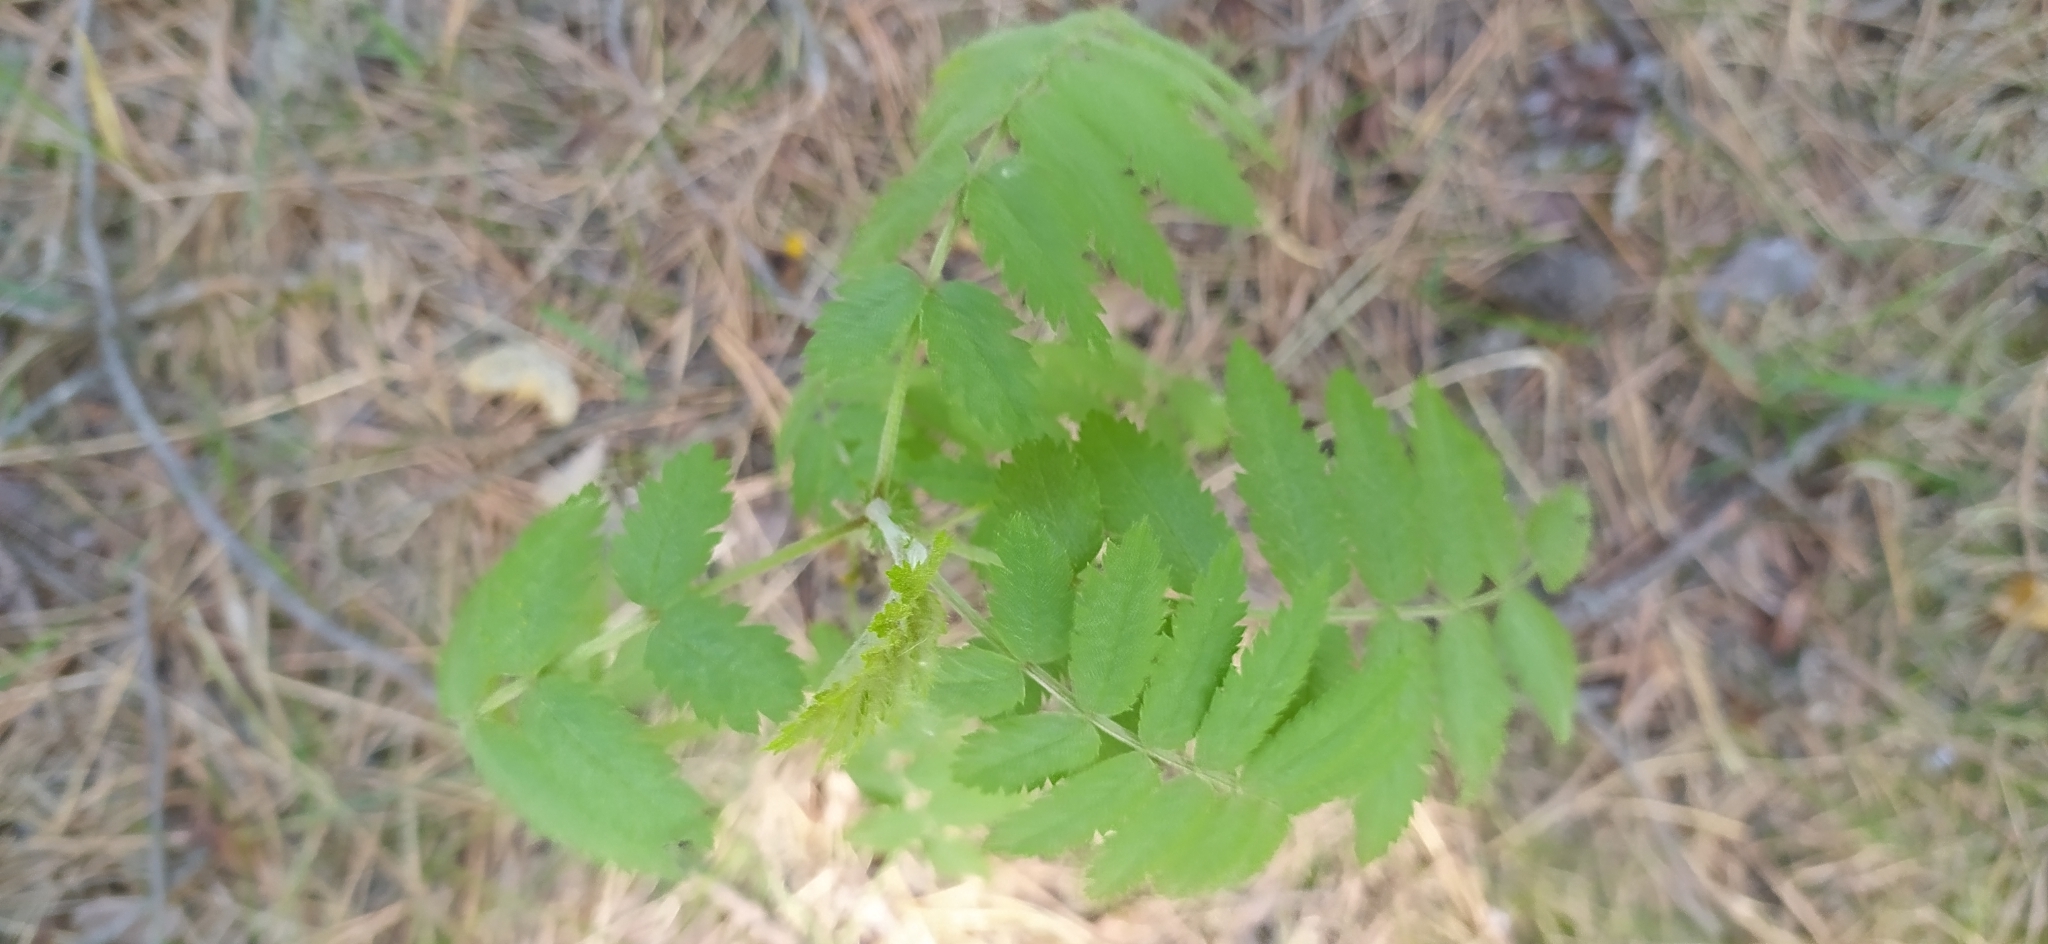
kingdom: Plantae
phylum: Tracheophyta
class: Magnoliopsida
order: Rosales
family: Rosaceae
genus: Sorbus
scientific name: Sorbus aucuparia
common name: Rowan
